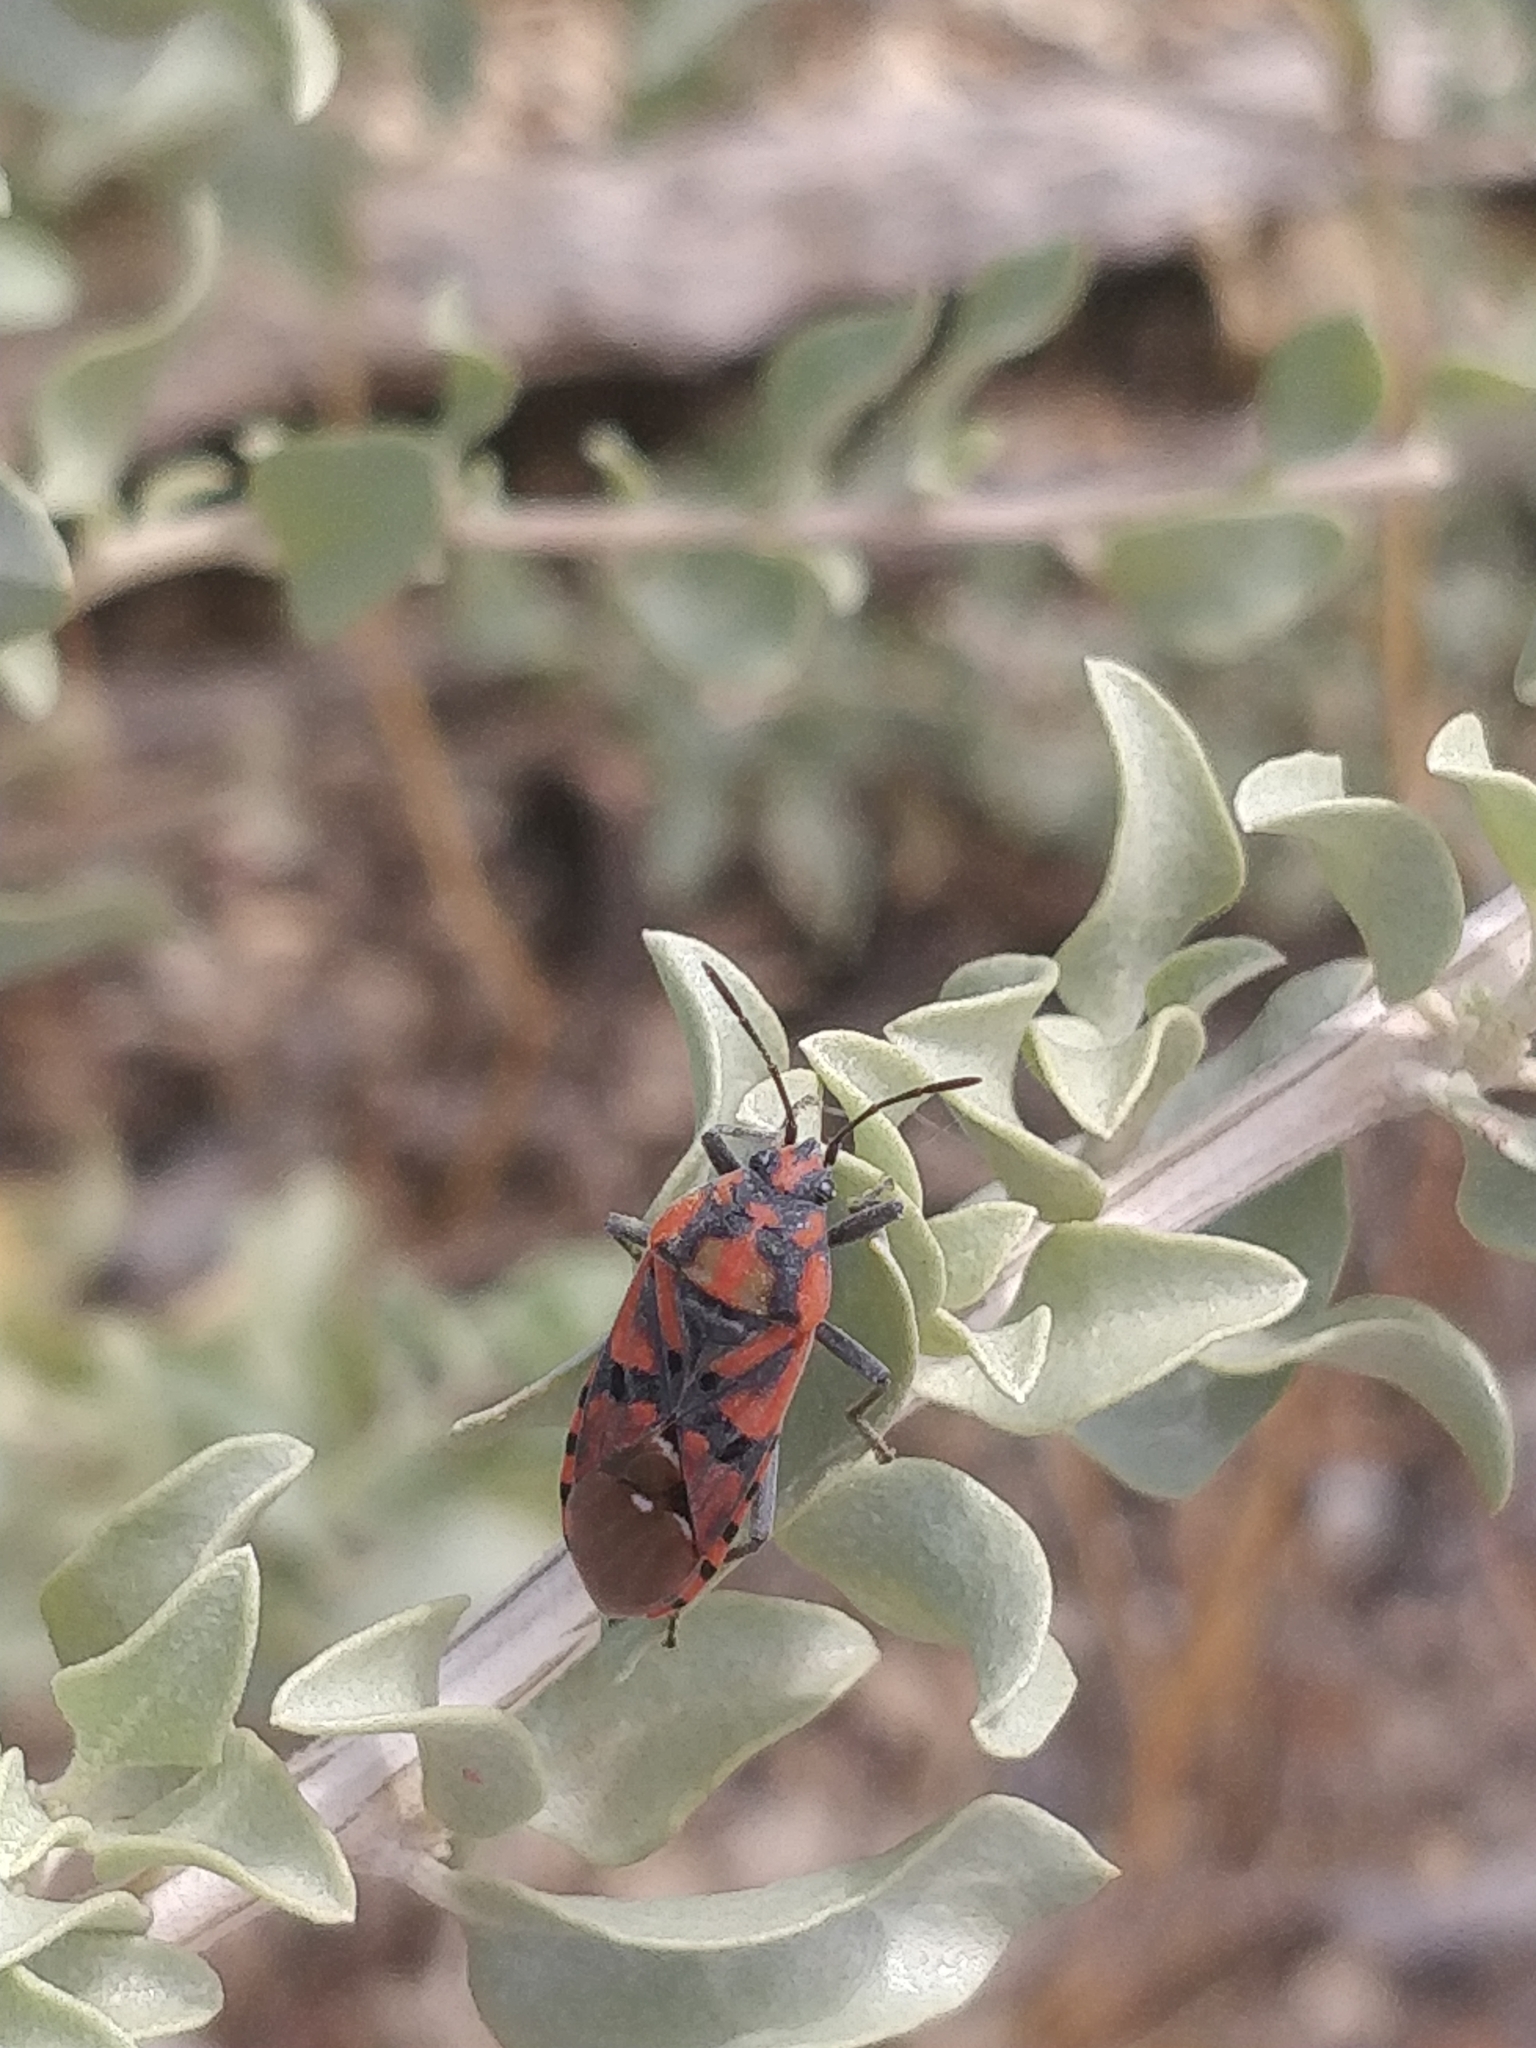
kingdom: Animalia
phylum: Arthropoda
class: Insecta
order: Hemiptera
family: Lygaeidae
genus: Spilostethus
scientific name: Spilostethus pandurus
